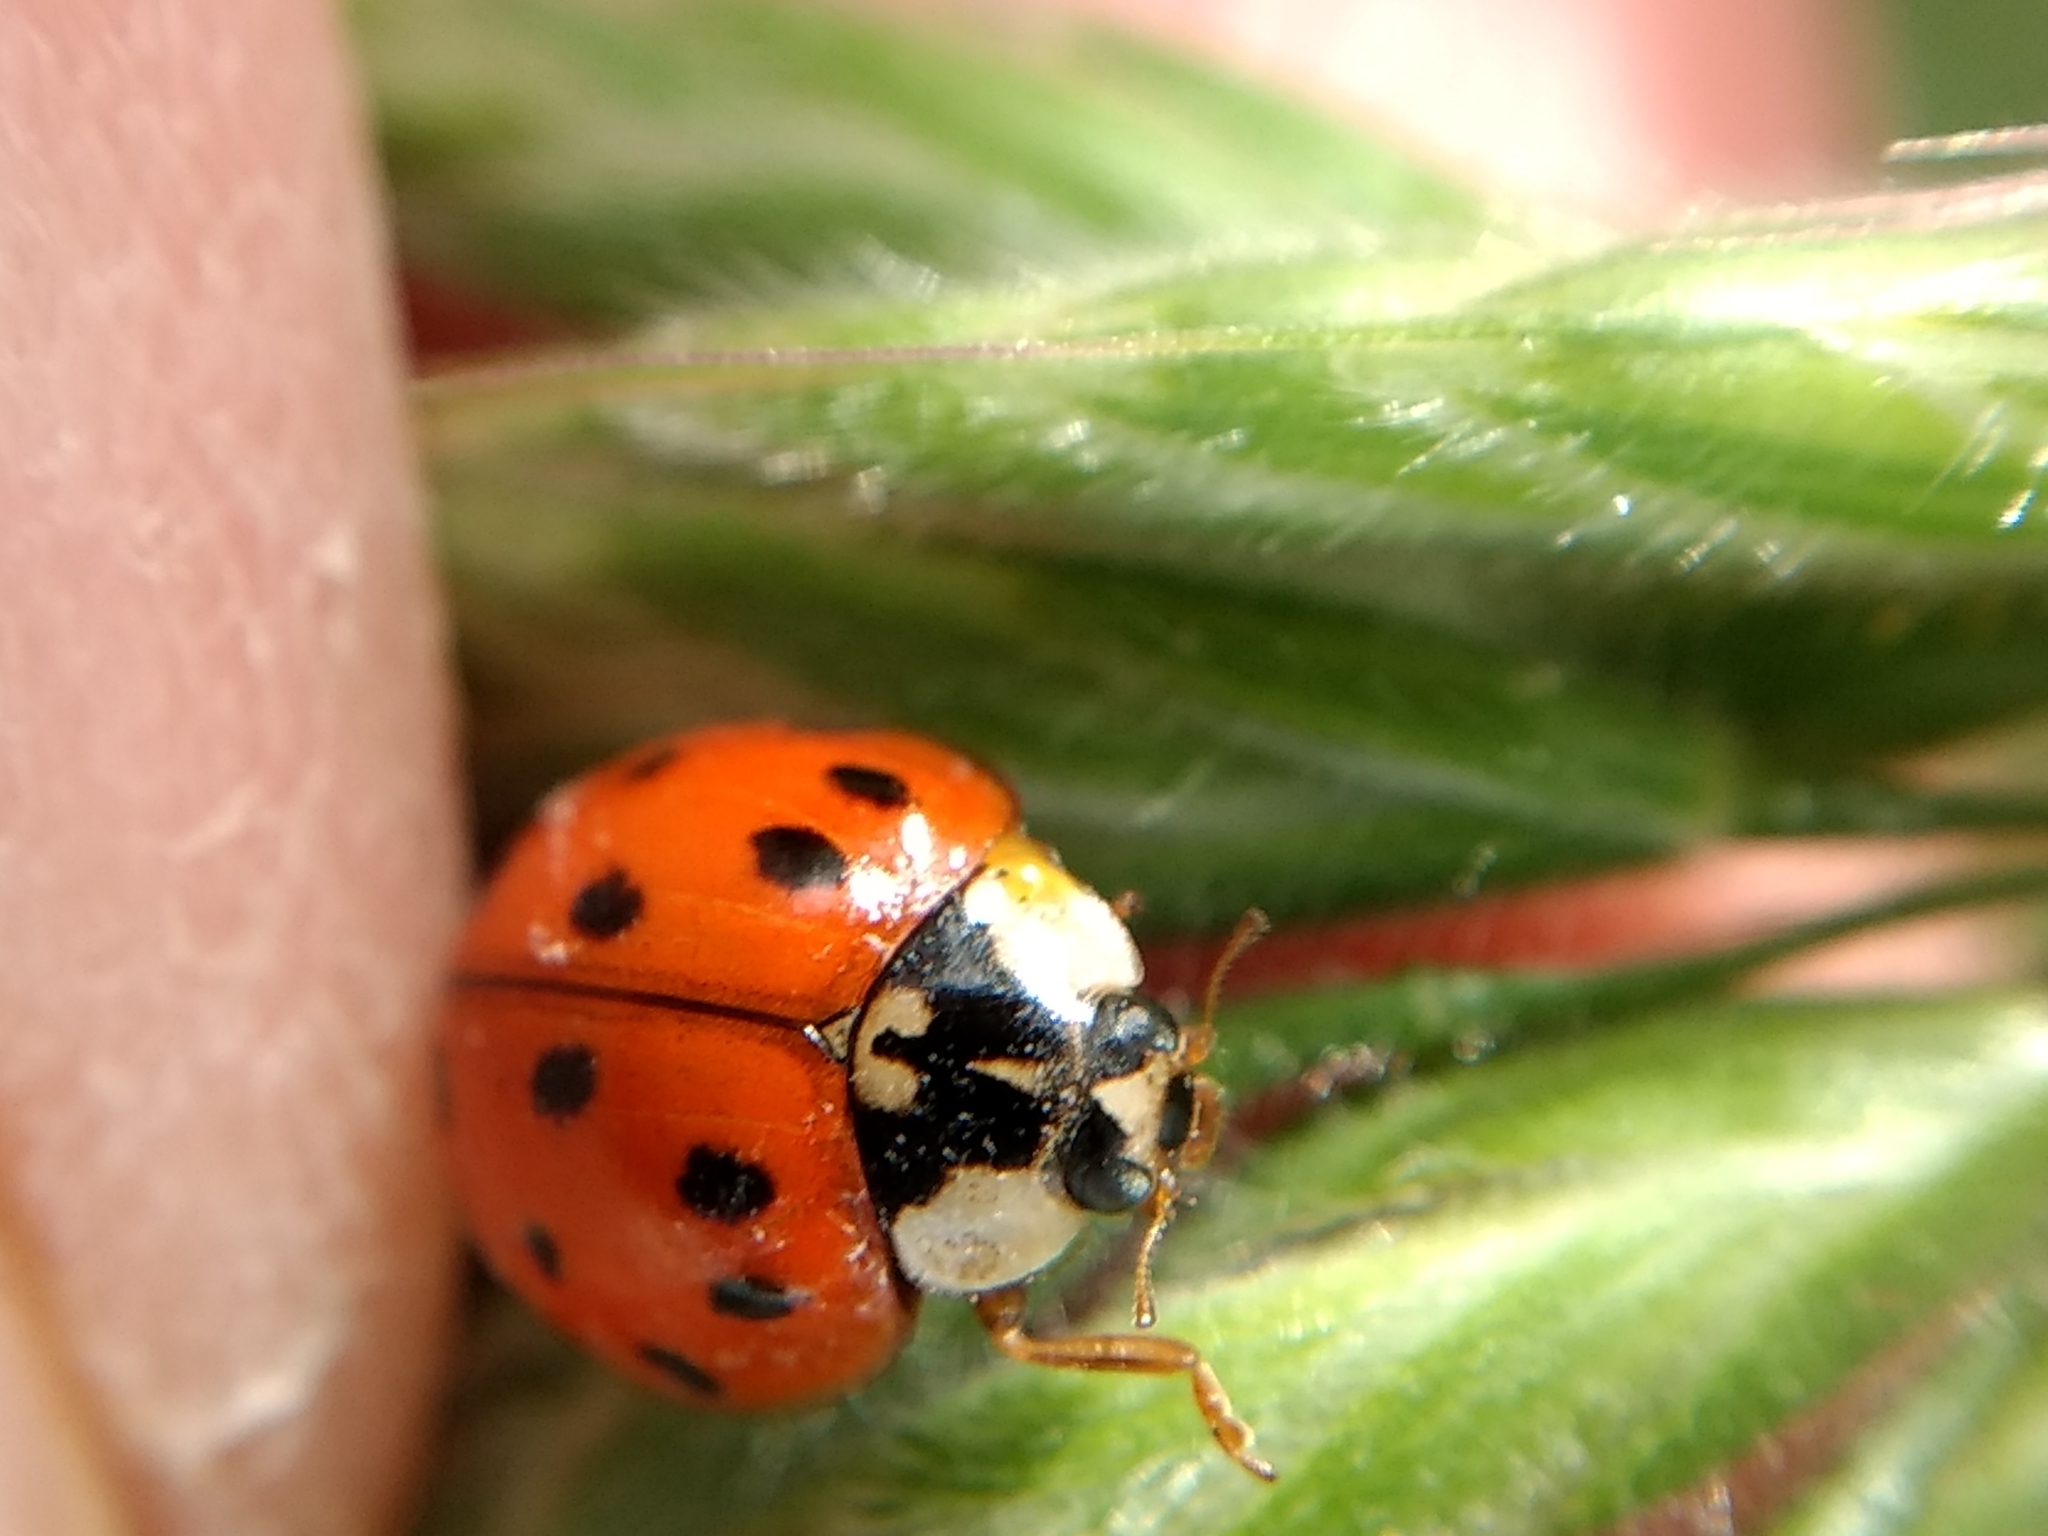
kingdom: Animalia
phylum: Arthropoda
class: Insecta
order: Coleoptera
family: Coccinellidae
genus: Harmonia
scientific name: Harmonia axyridis
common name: Harlequin ladybird
